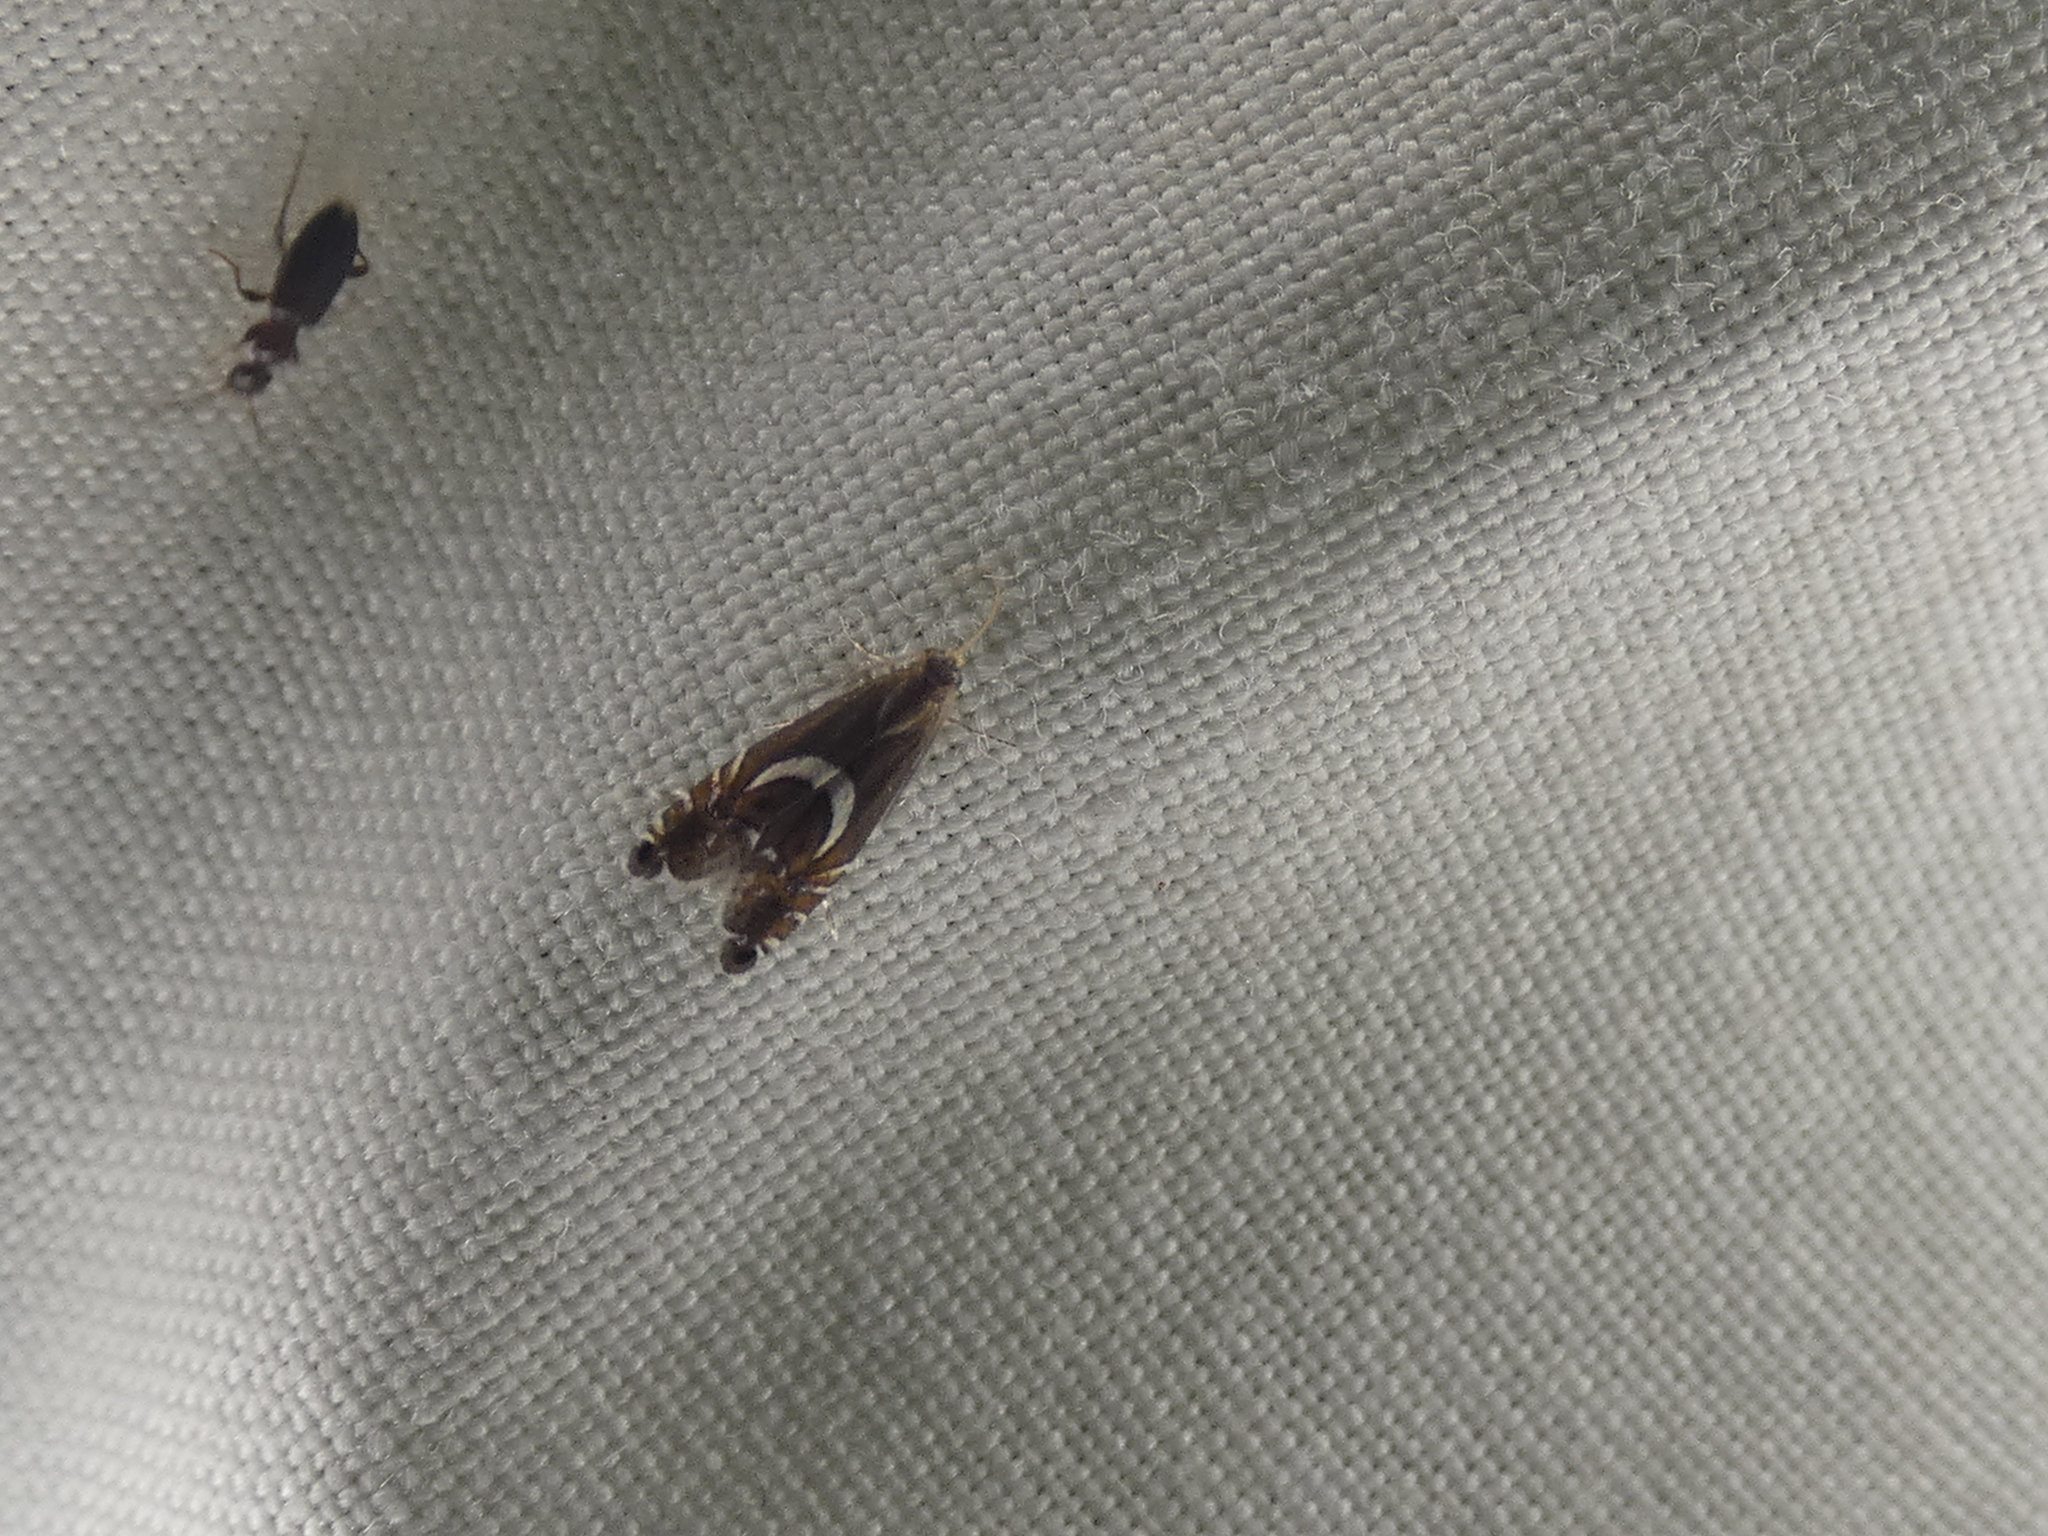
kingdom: Animalia
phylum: Arthropoda
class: Insecta
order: Lepidoptera
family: Glyphipterigidae
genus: Glyphipterix
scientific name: Glyphipterix Diploschizia impigritella
